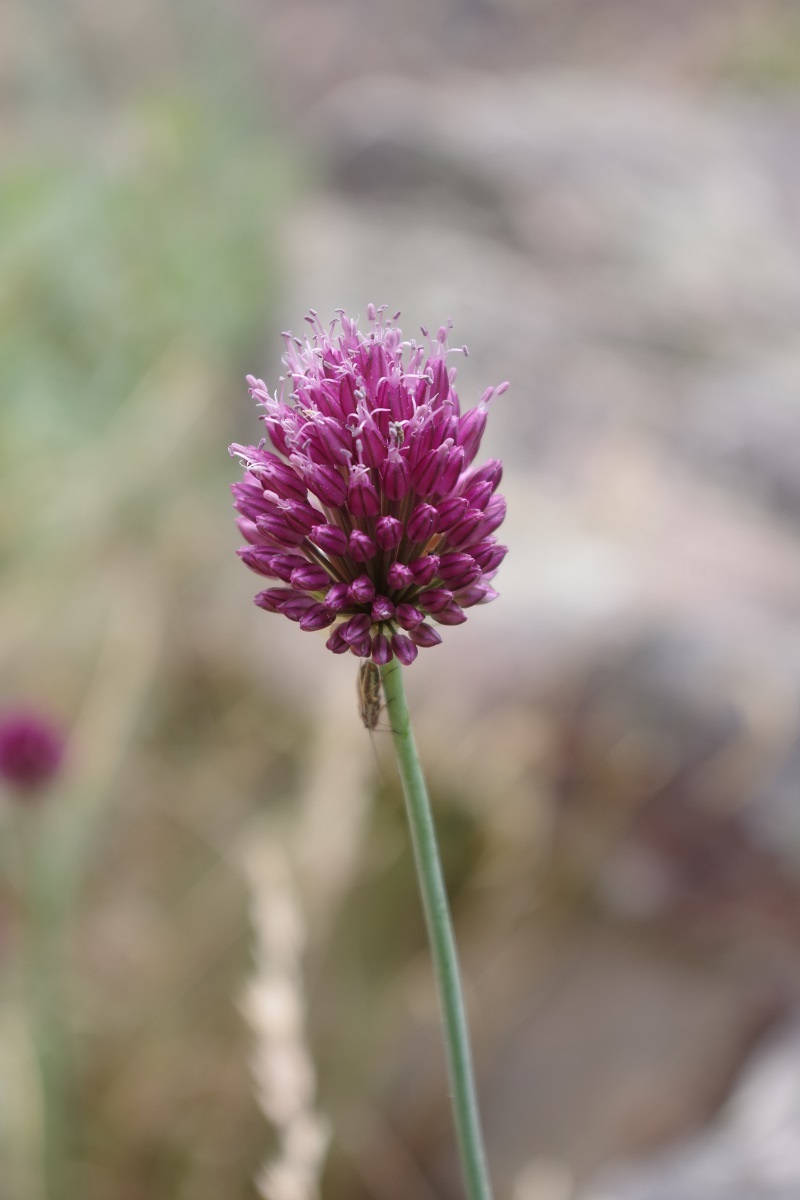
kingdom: Plantae
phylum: Tracheophyta
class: Liliopsida
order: Asparagales
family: Amaryllidaceae
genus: Allium
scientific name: Allium sphaerocephalon
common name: Round-headed leek
